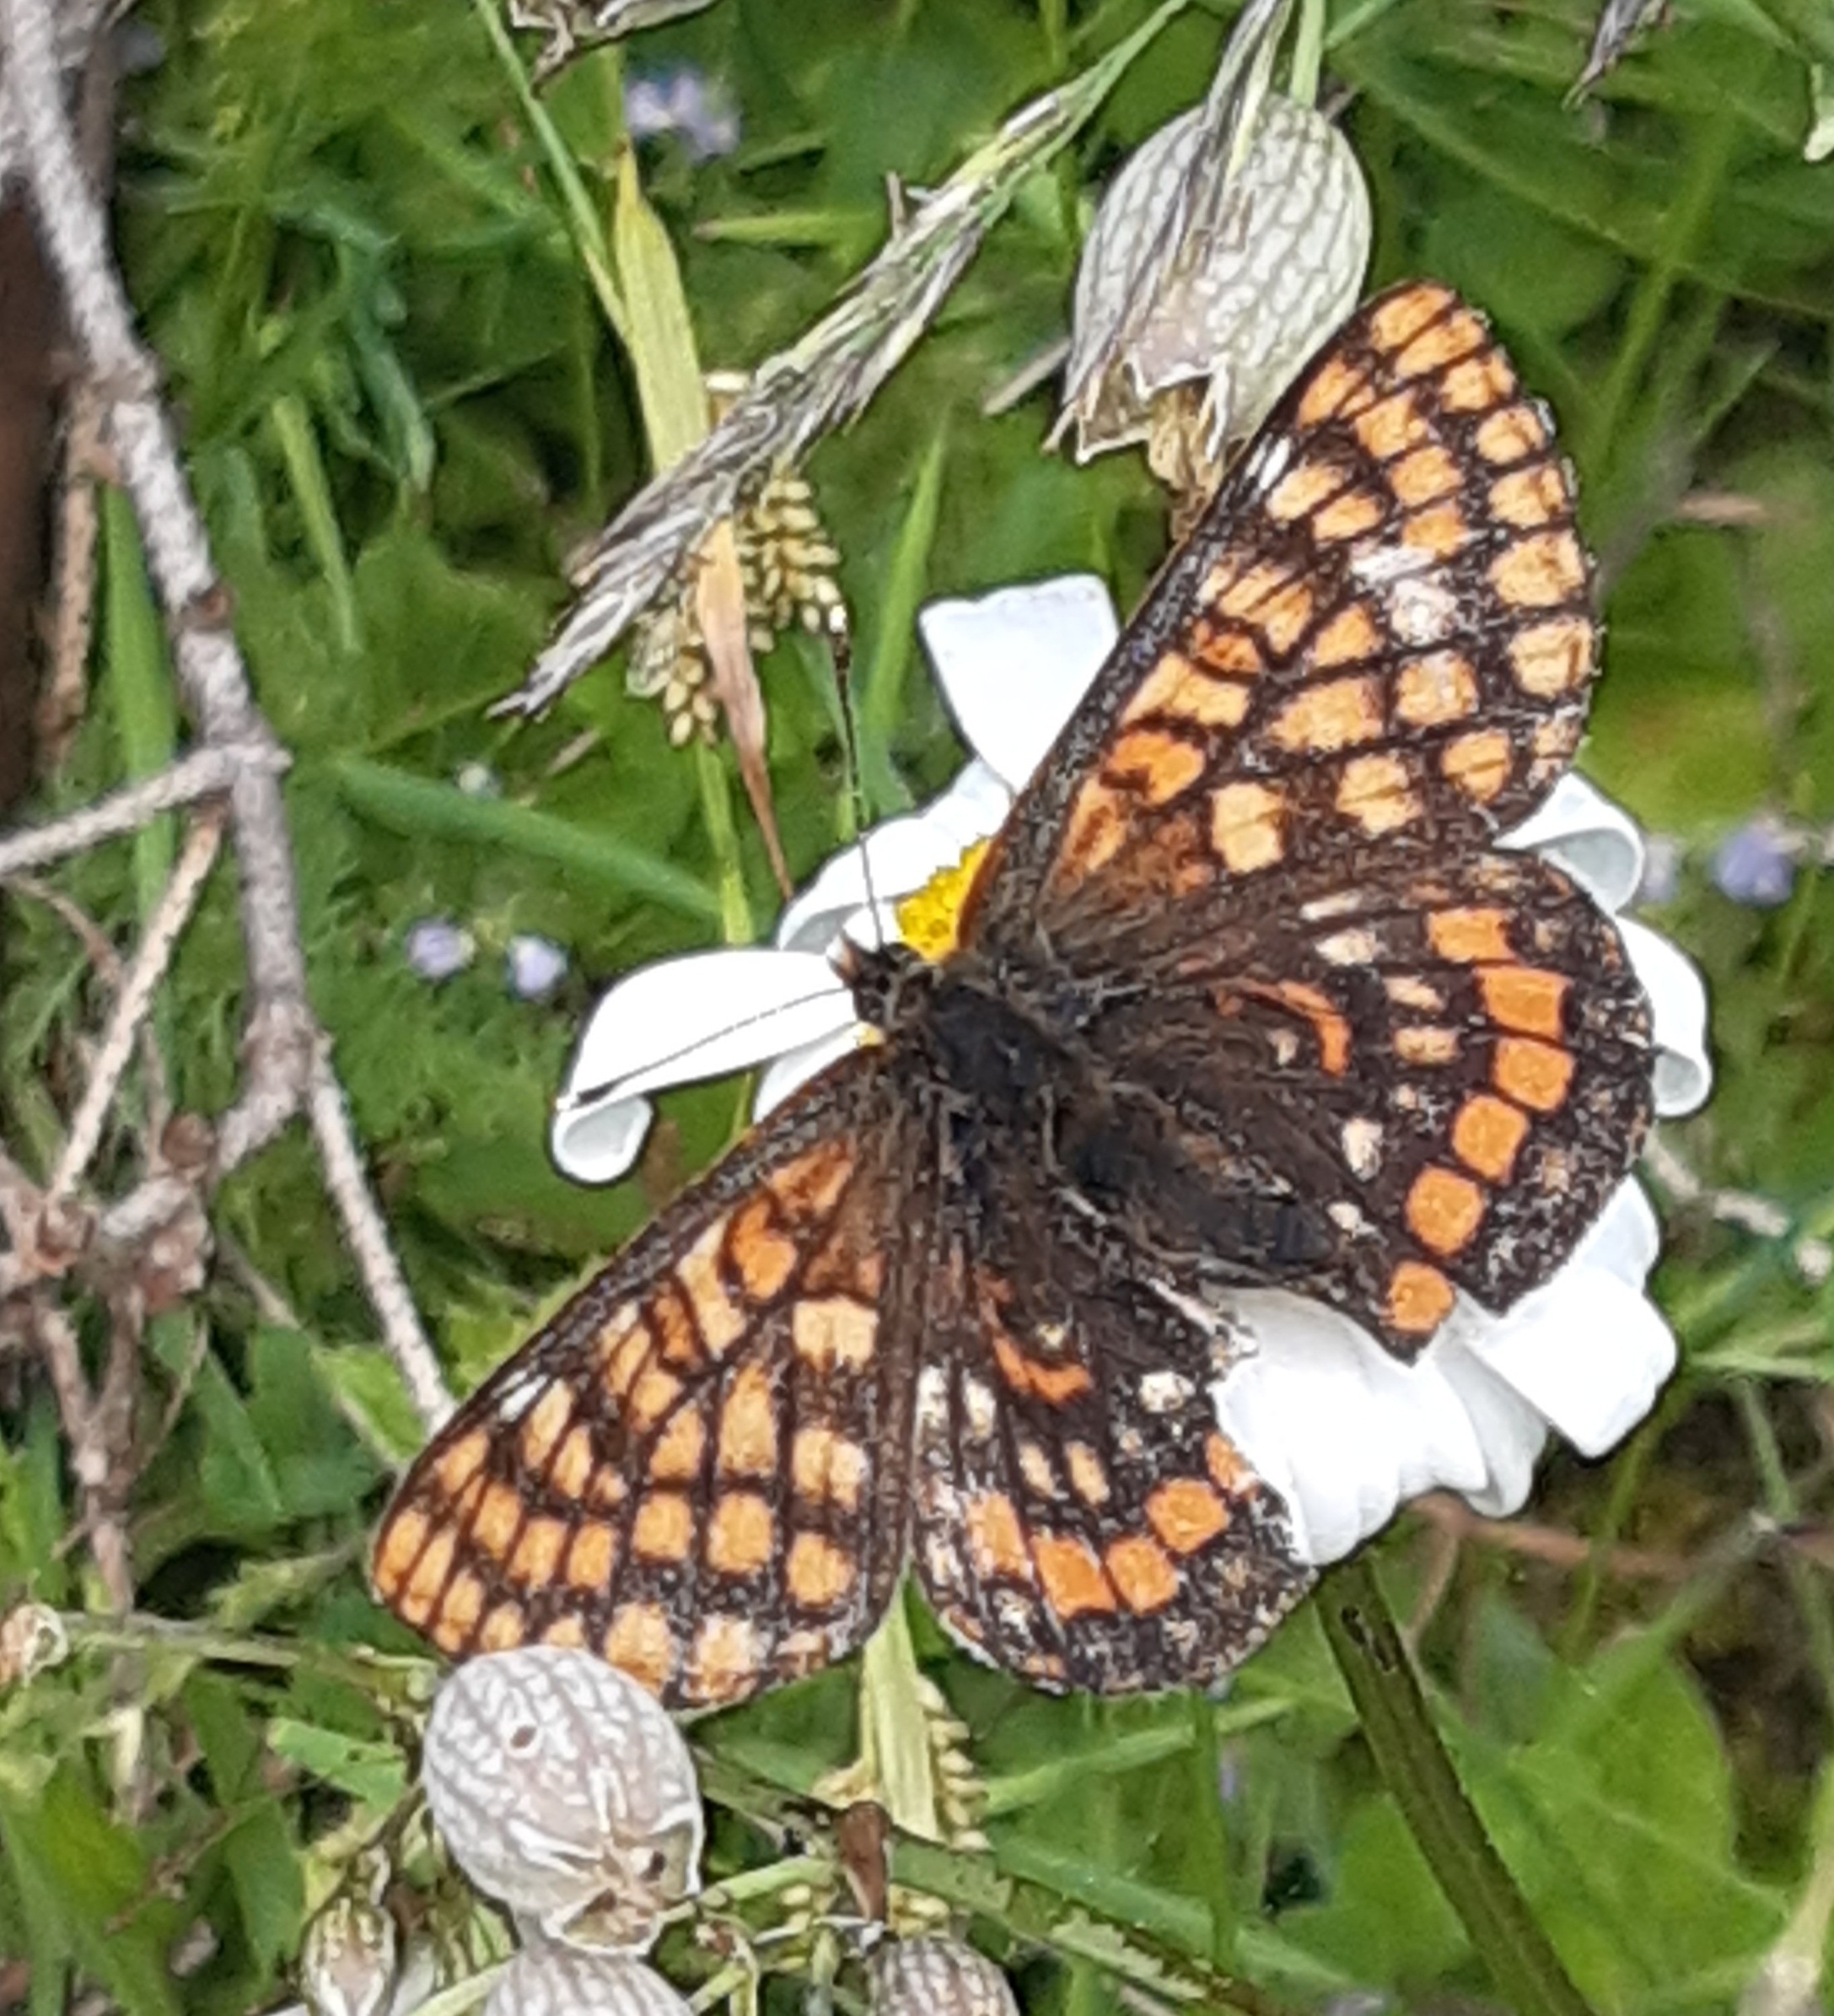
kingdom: Animalia
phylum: Arthropoda
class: Insecta
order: Lepidoptera
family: Nymphalidae
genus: Hypodryas
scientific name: Hypodryas intermedia
